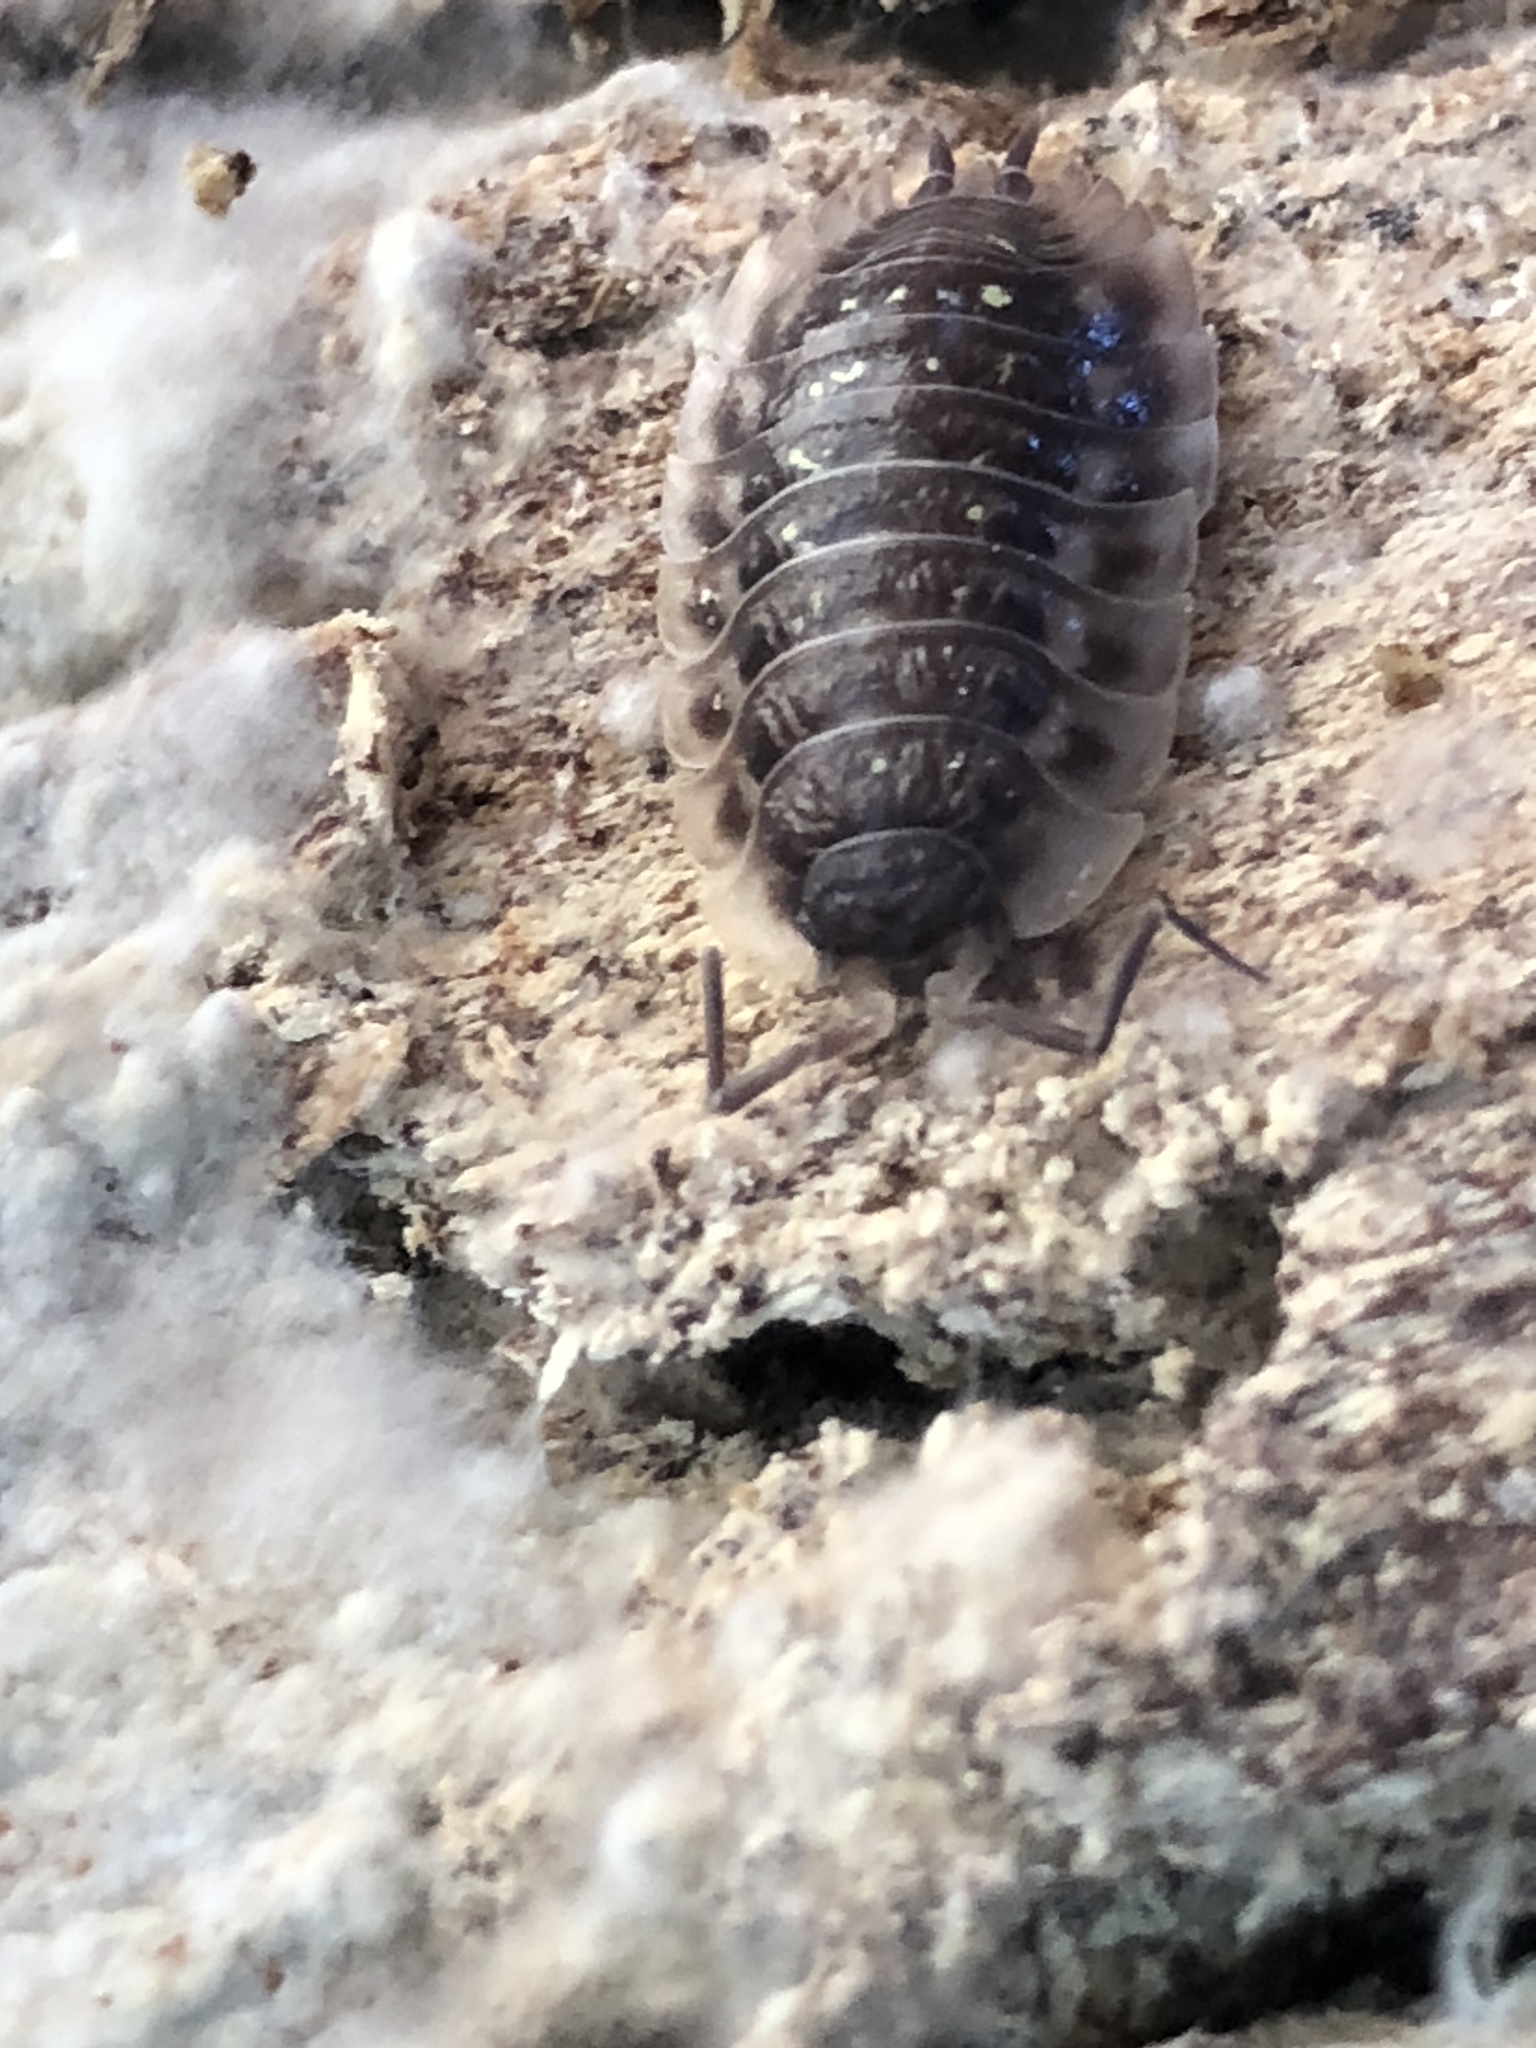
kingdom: Animalia
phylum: Arthropoda
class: Malacostraca
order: Isopoda
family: Oniscidae
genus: Oniscus
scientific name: Oniscus asellus
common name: Common shiny woodlouse
